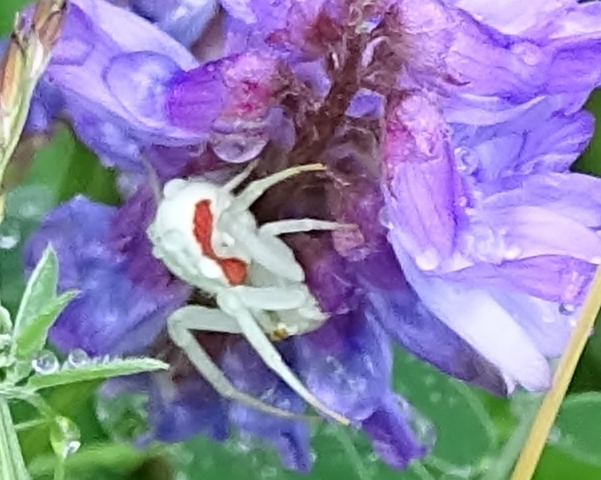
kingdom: Animalia
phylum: Arthropoda
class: Arachnida
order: Araneae
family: Thomisidae
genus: Misumena
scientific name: Misumena vatia
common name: Goldenrod crab spider
